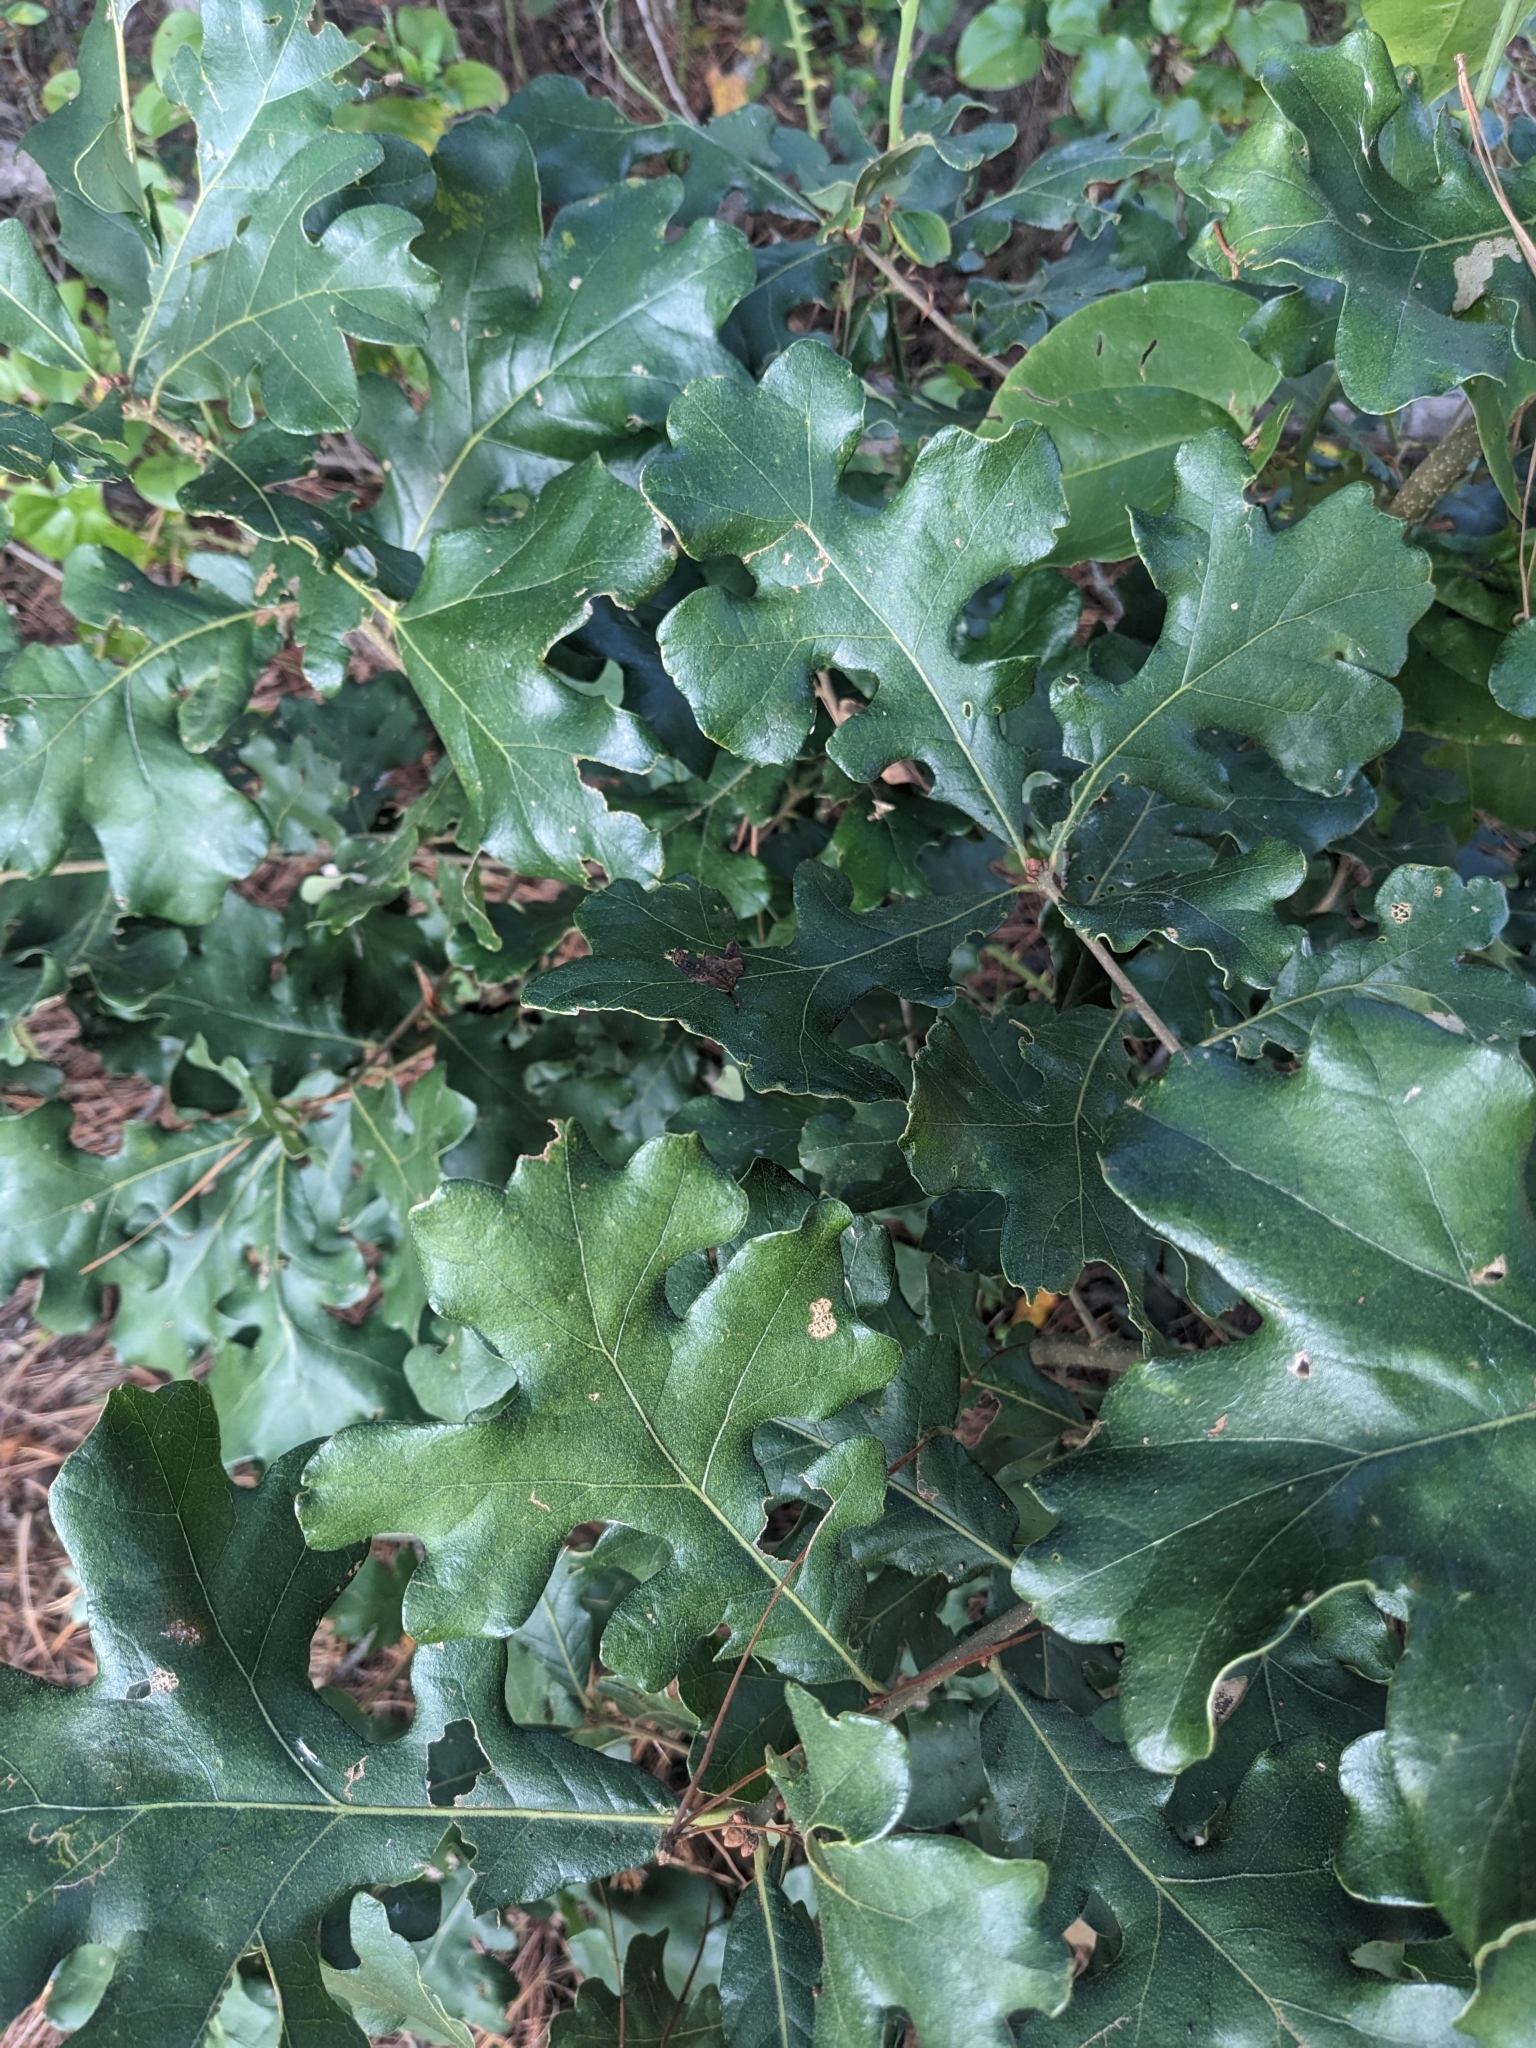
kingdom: Plantae
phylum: Tracheophyta
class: Magnoliopsida
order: Fagales
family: Fagaceae
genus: Quercus
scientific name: Quercus stellata
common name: Post oak
